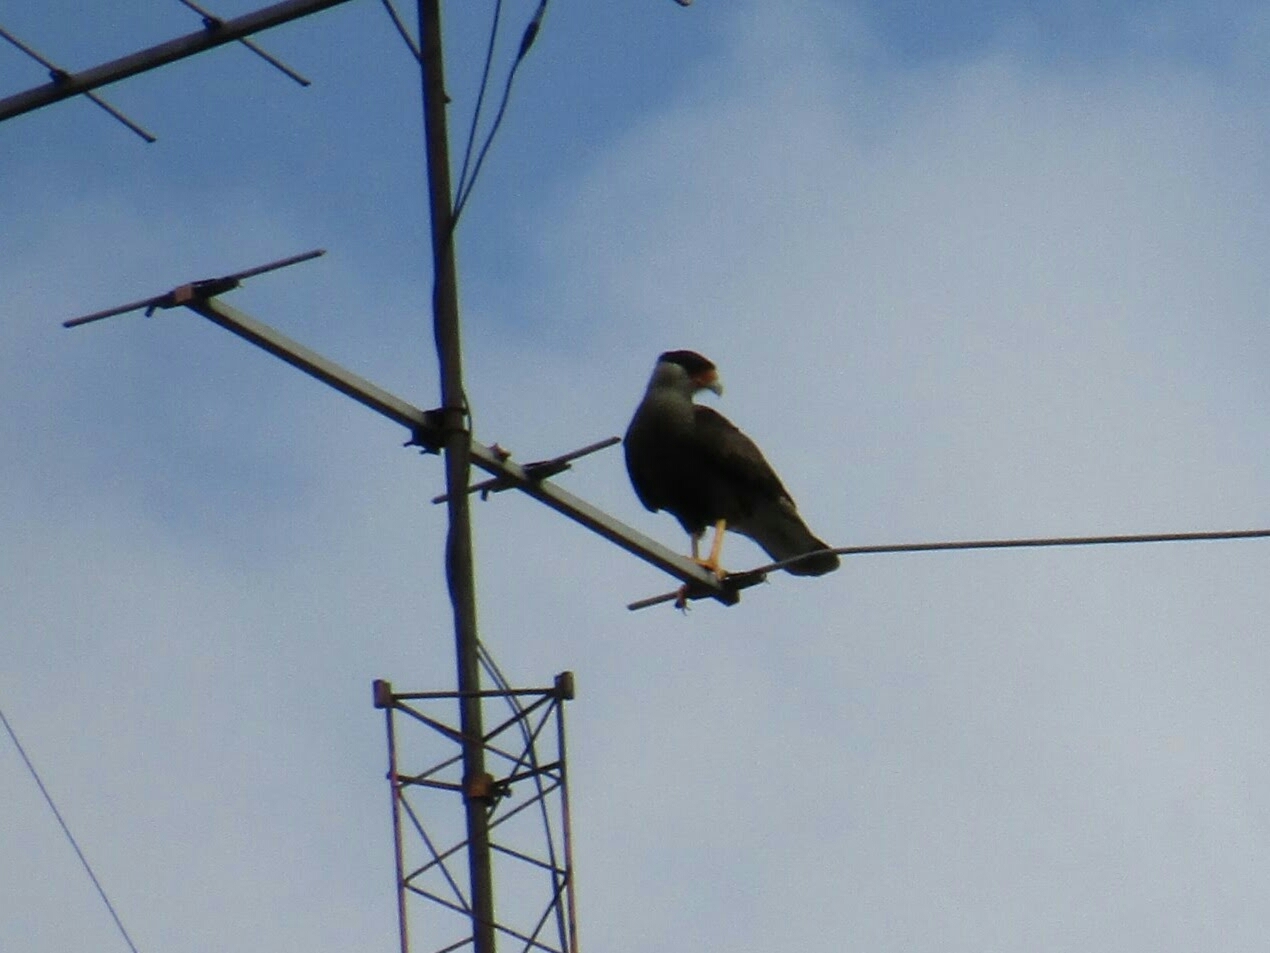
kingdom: Animalia
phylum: Chordata
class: Aves
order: Falconiformes
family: Falconidae
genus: Caracara
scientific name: Caracara plancus
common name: Southern caracara
